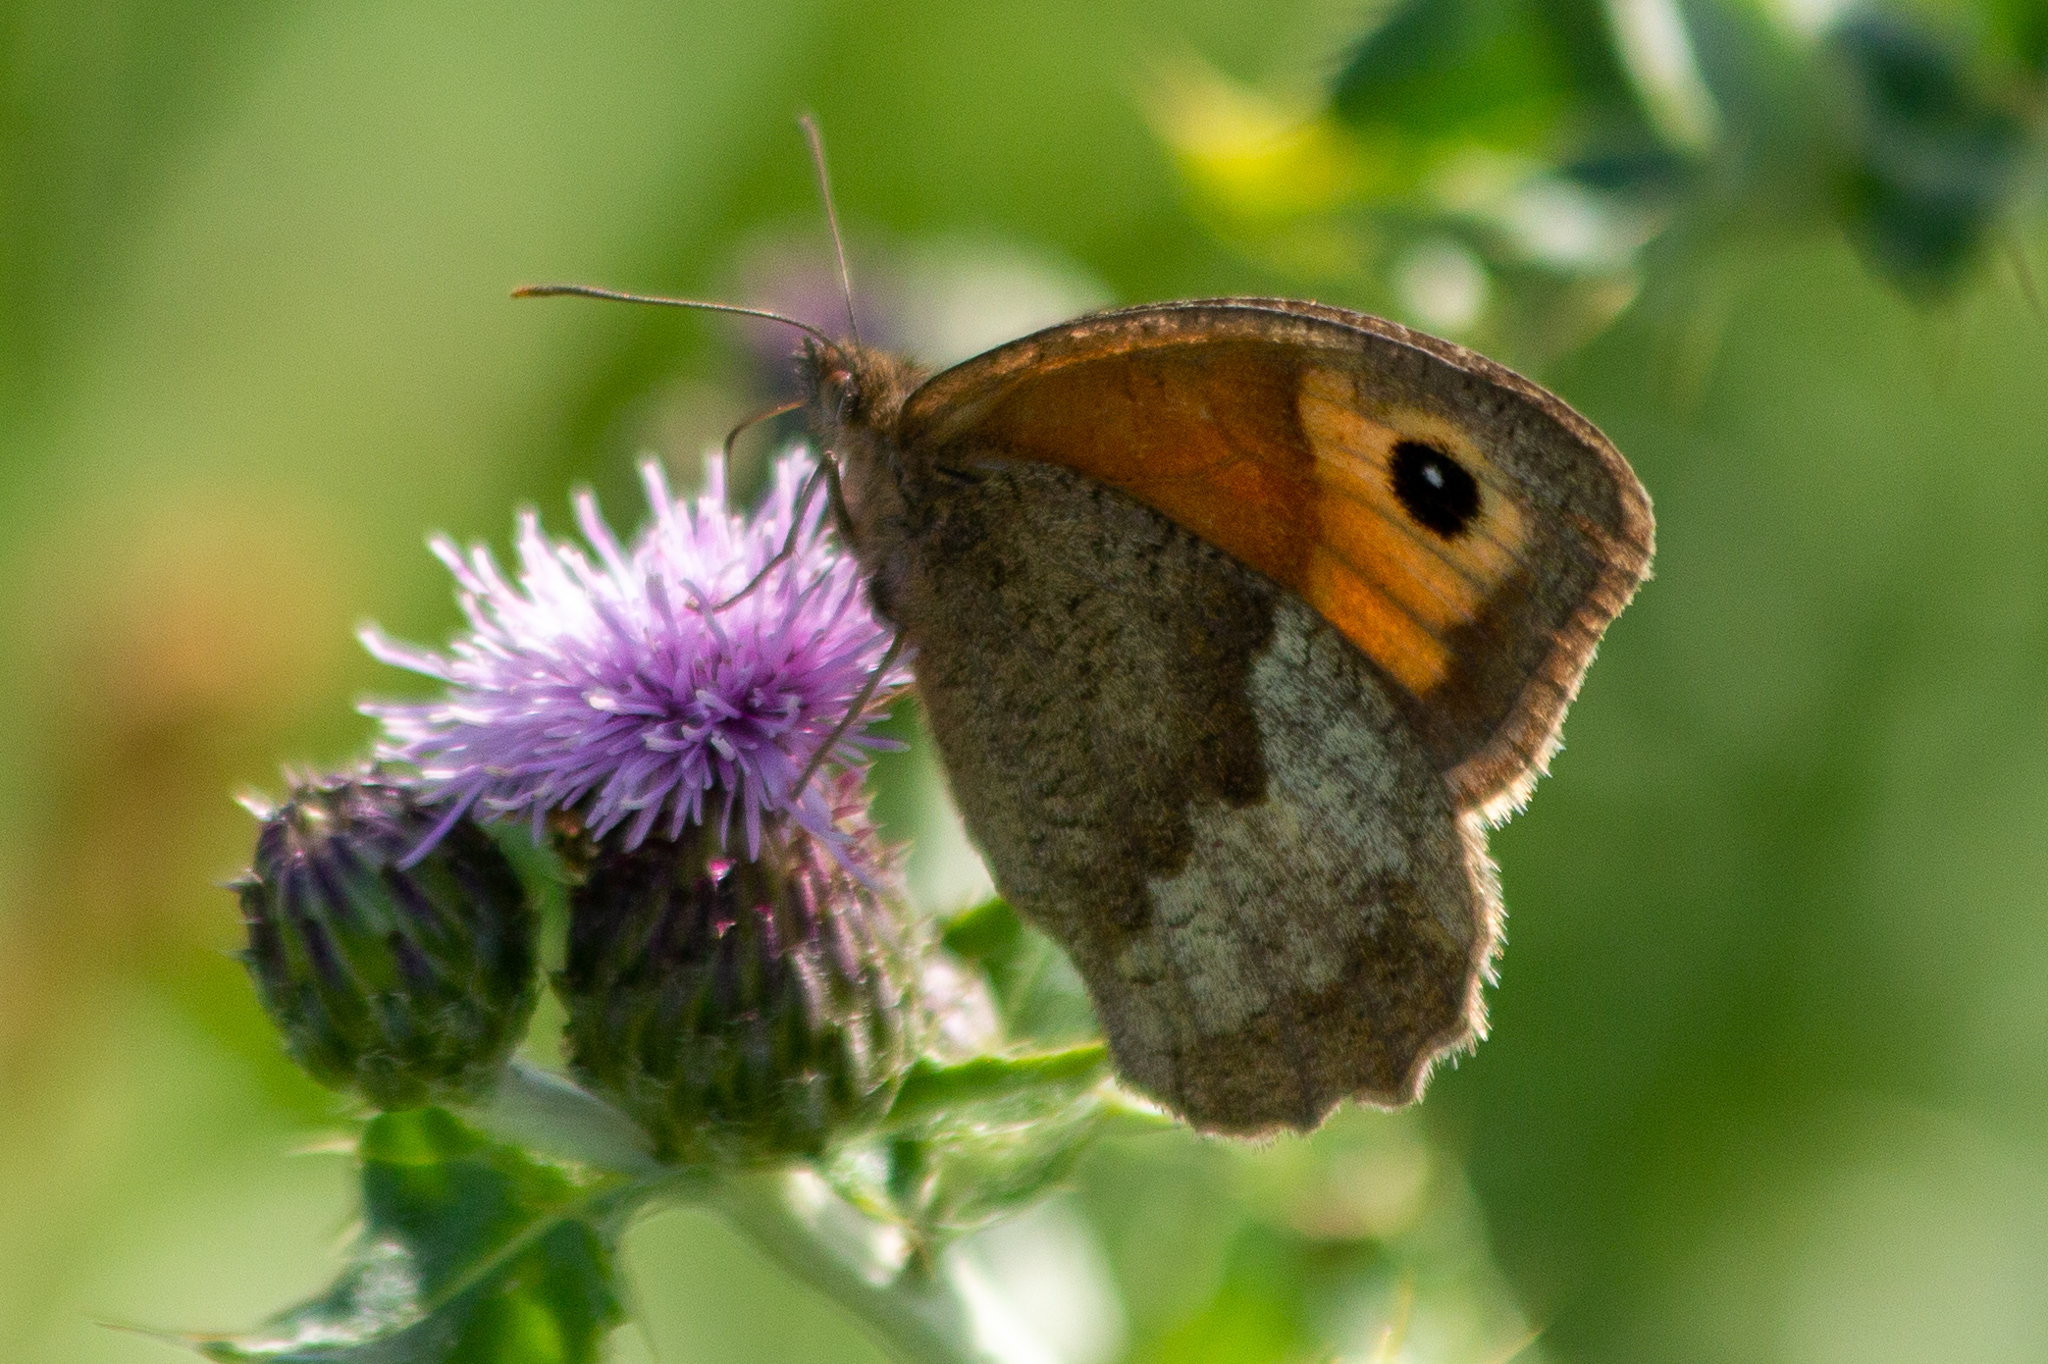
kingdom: Animalia
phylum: Arthropoda
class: Insecta
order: Lepidoptera
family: Nymphalidae
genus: Maniola
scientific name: Maniola jurtina
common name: Meadow brown
